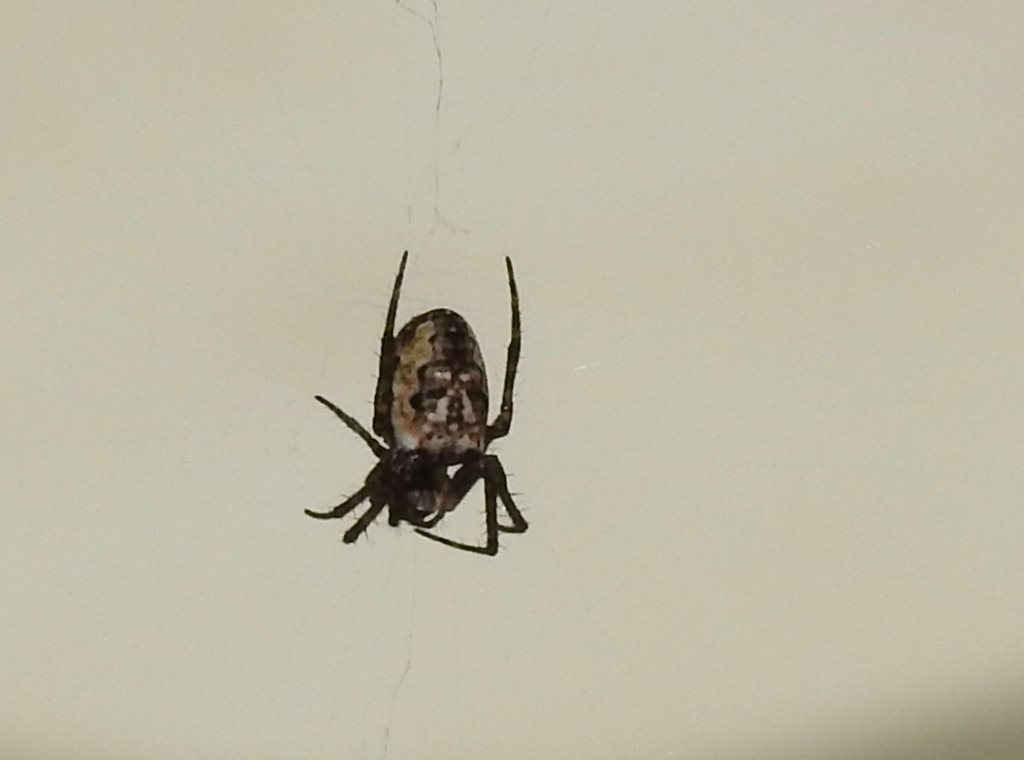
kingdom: Animalia
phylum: Arthropoda
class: Arachnida
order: Araneae
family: Araneidae
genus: Plebs
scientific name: Plebs eburnus
